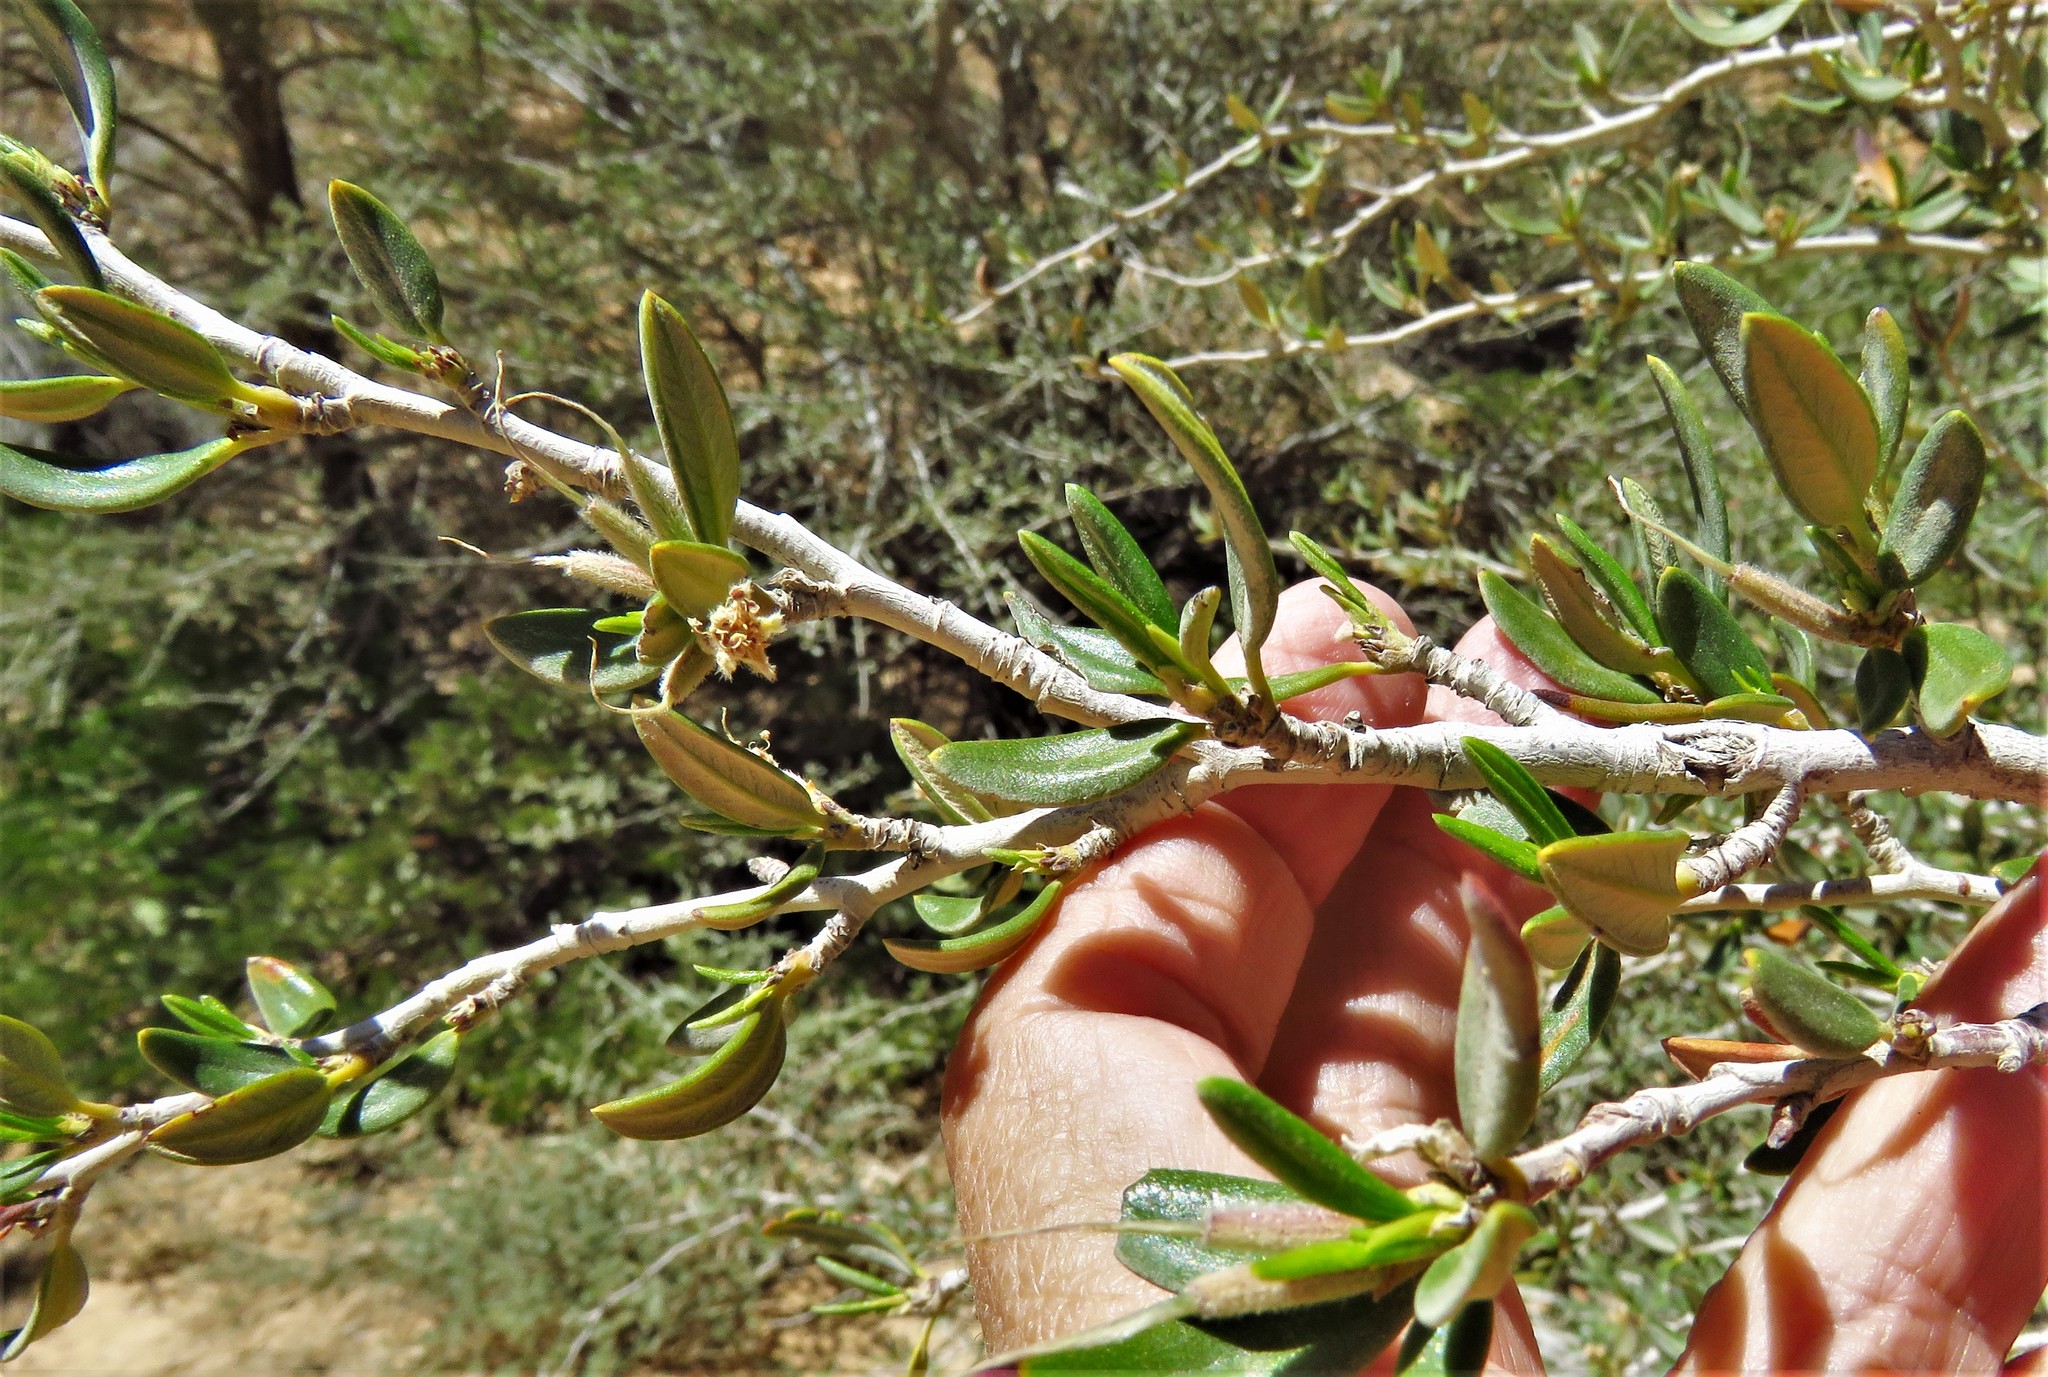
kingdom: Plantae
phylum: Tracheophyta
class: Magnoliopsida
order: Rosales
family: Rosaceae
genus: Cercocarpus
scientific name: Cercocarpus ledifolius
